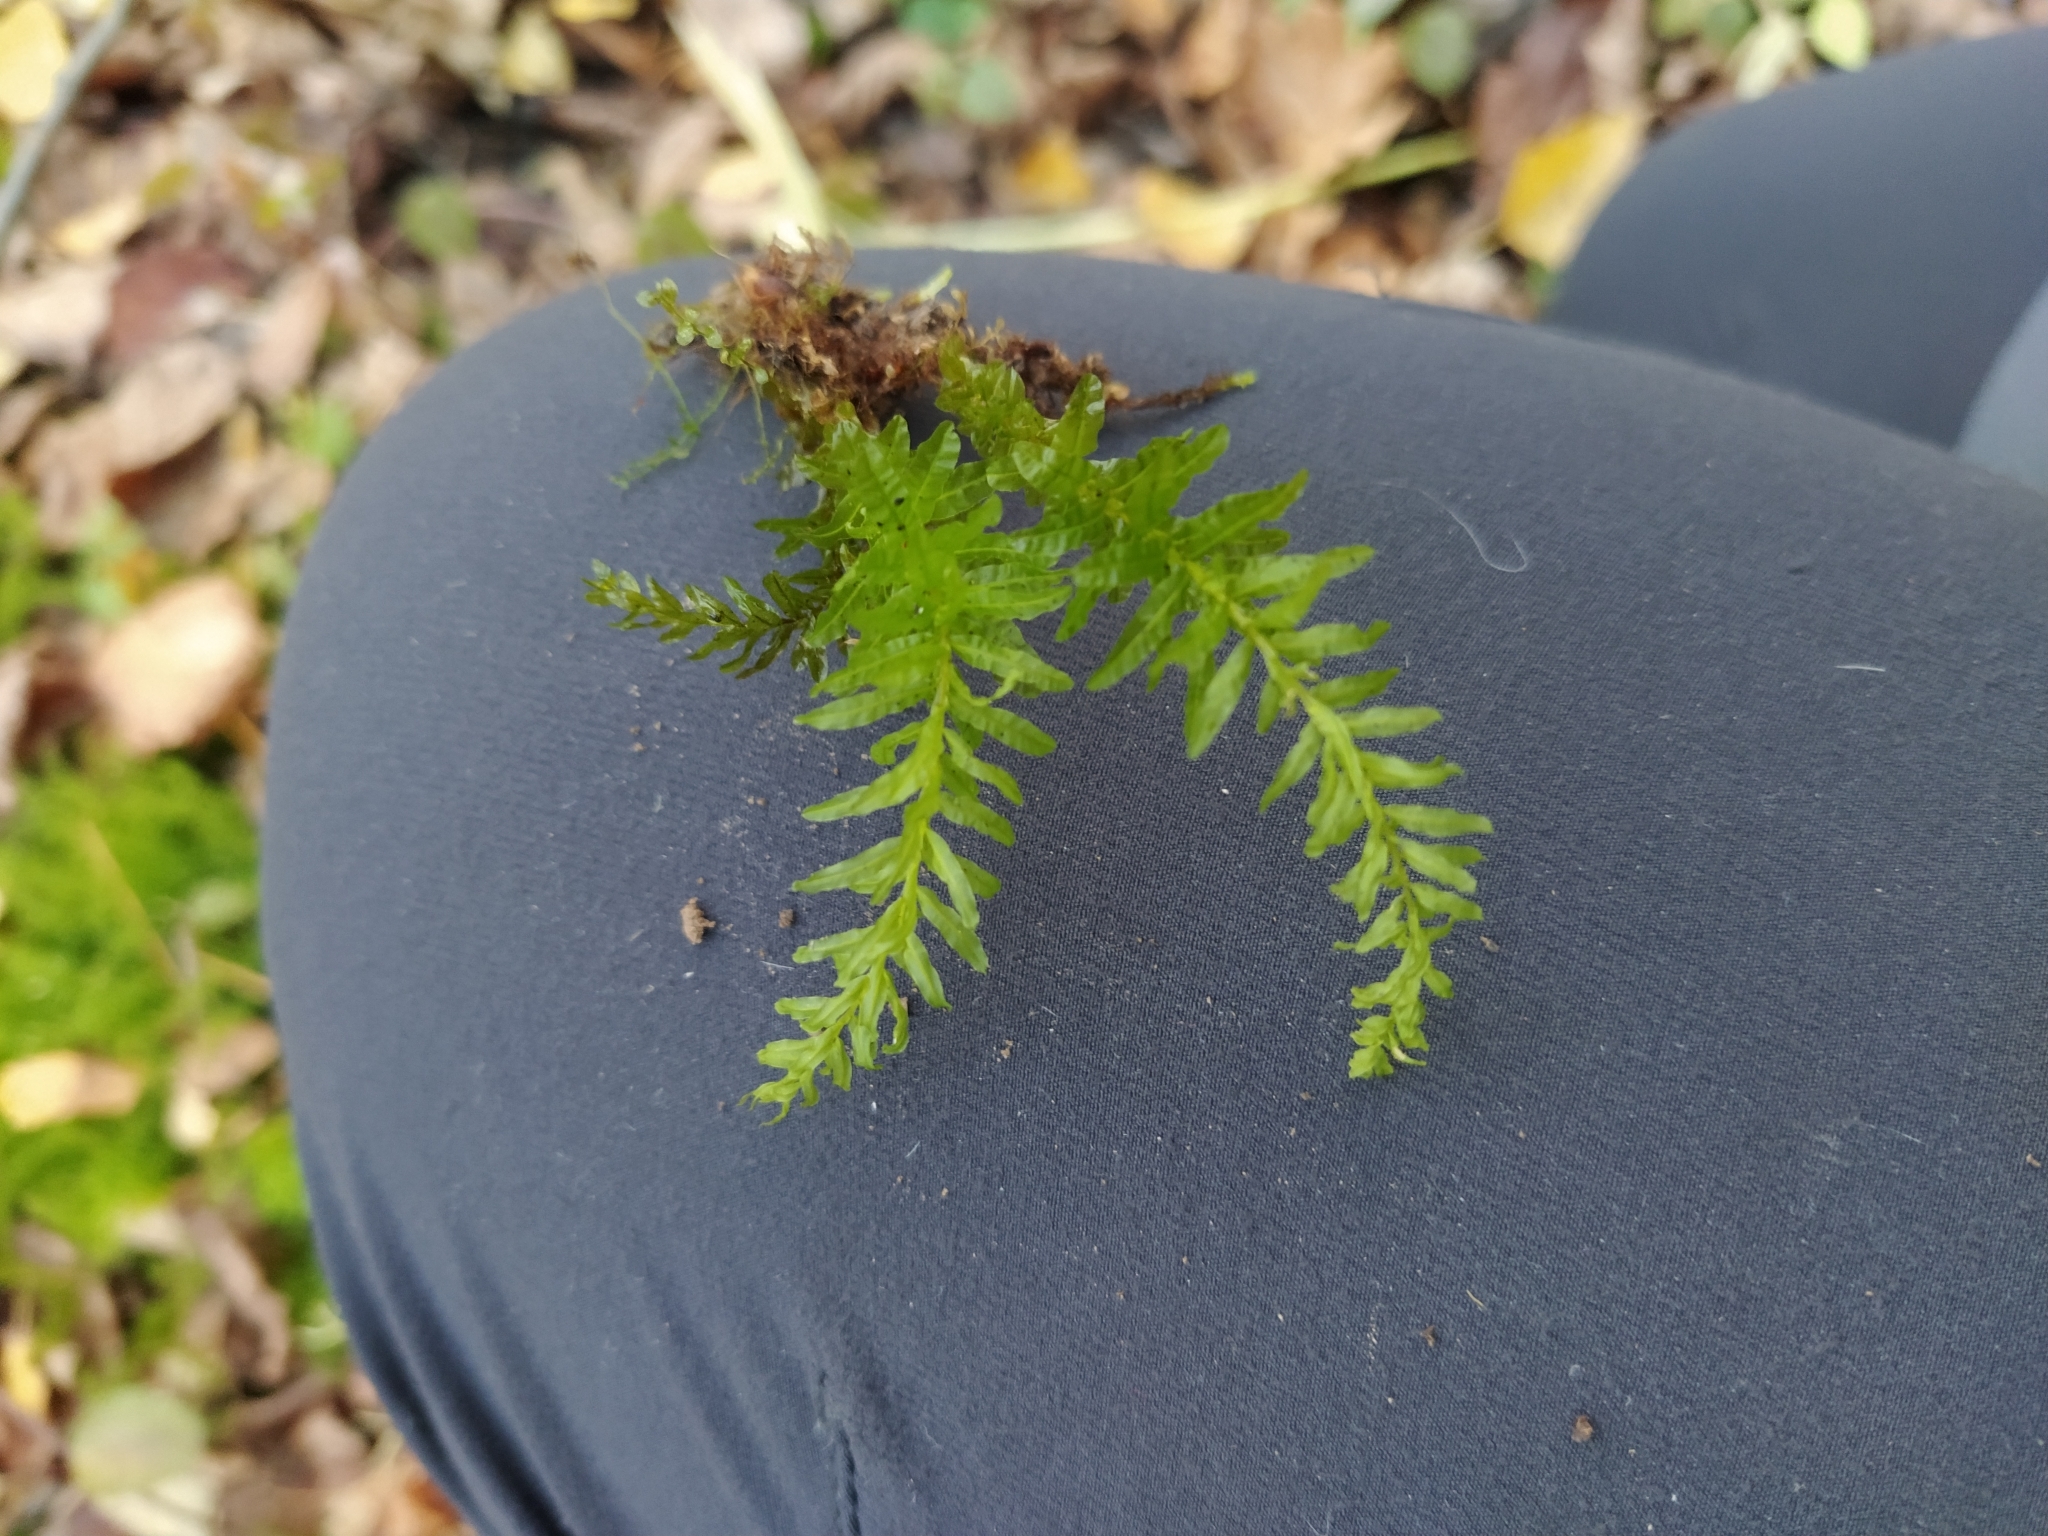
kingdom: Plantae
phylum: Bryophyta
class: Bryopsida
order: Bryales
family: Mniaceae
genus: Plagiomnium
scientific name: Plagiomnium undulatum
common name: Hart's-tongue thyme-moss
